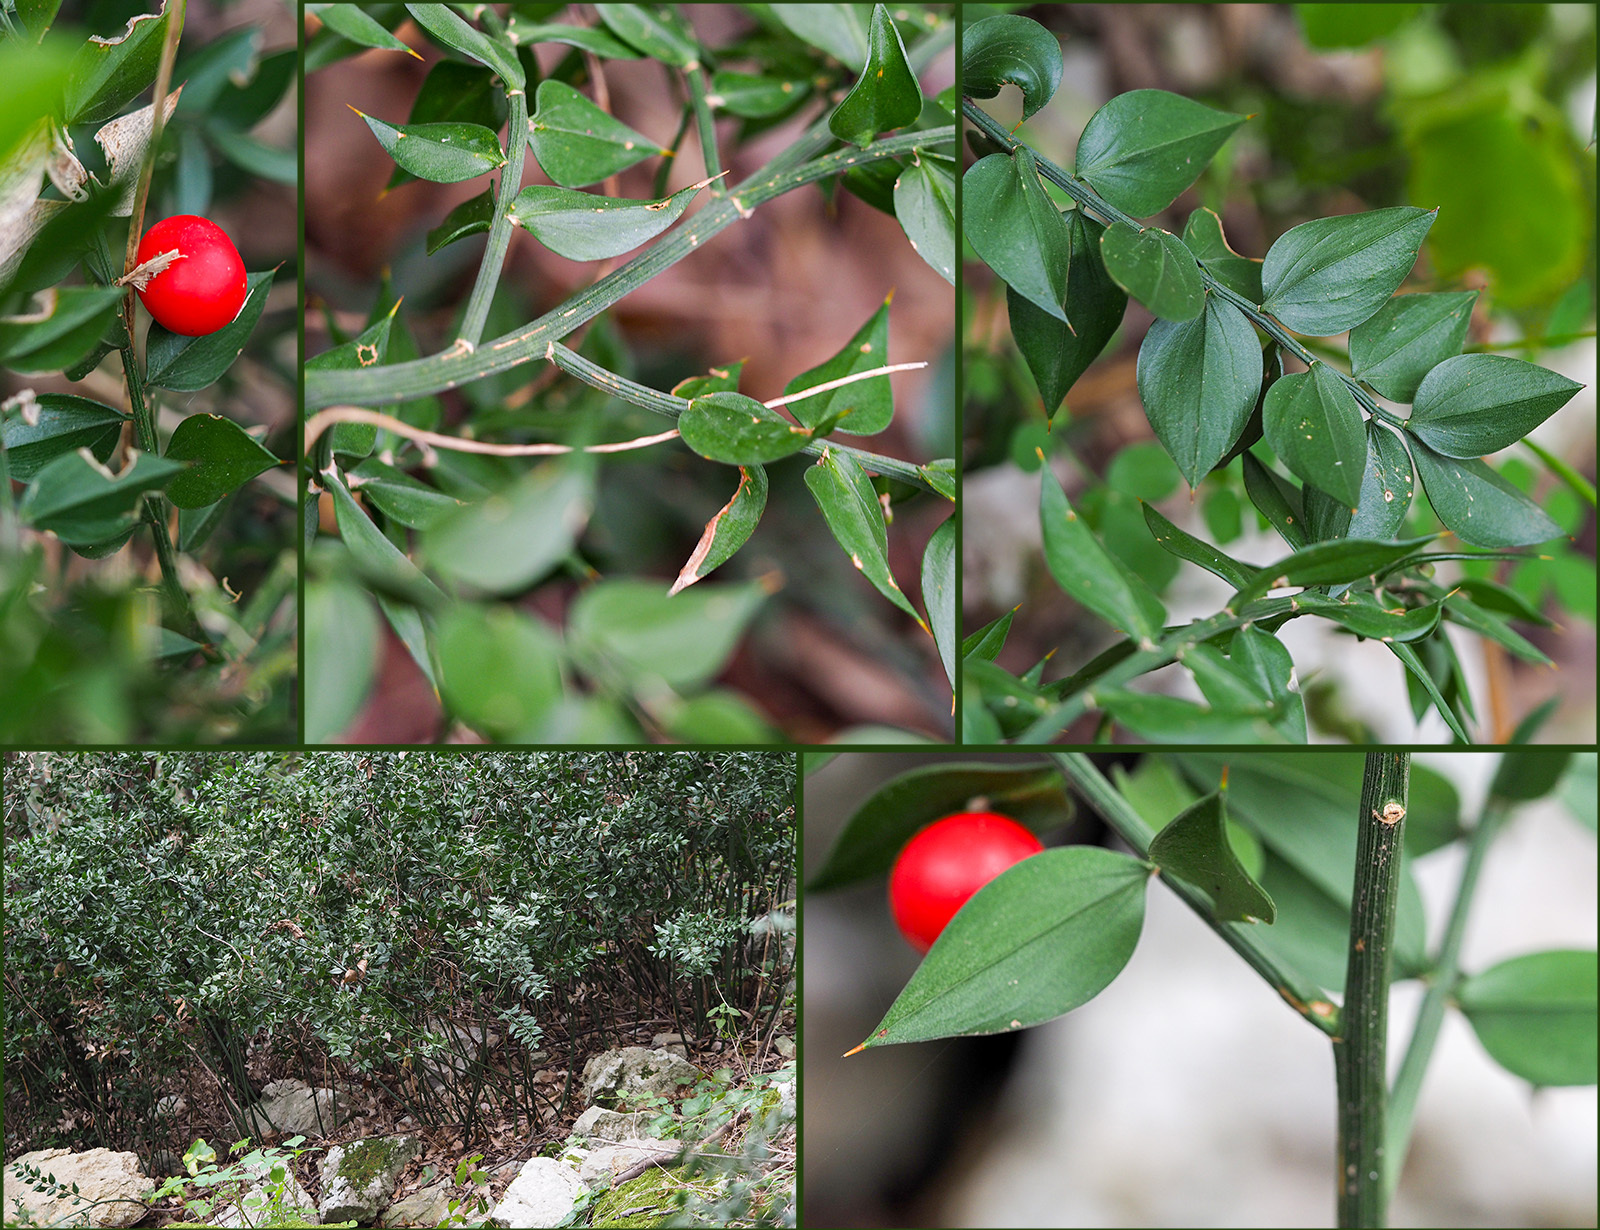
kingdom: Plantae
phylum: Tracheophyta
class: Liliopsida
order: Asparagales
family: Asparagaceae
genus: Ruscus
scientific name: Ruscus aculeatus
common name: Butcher's-broom
